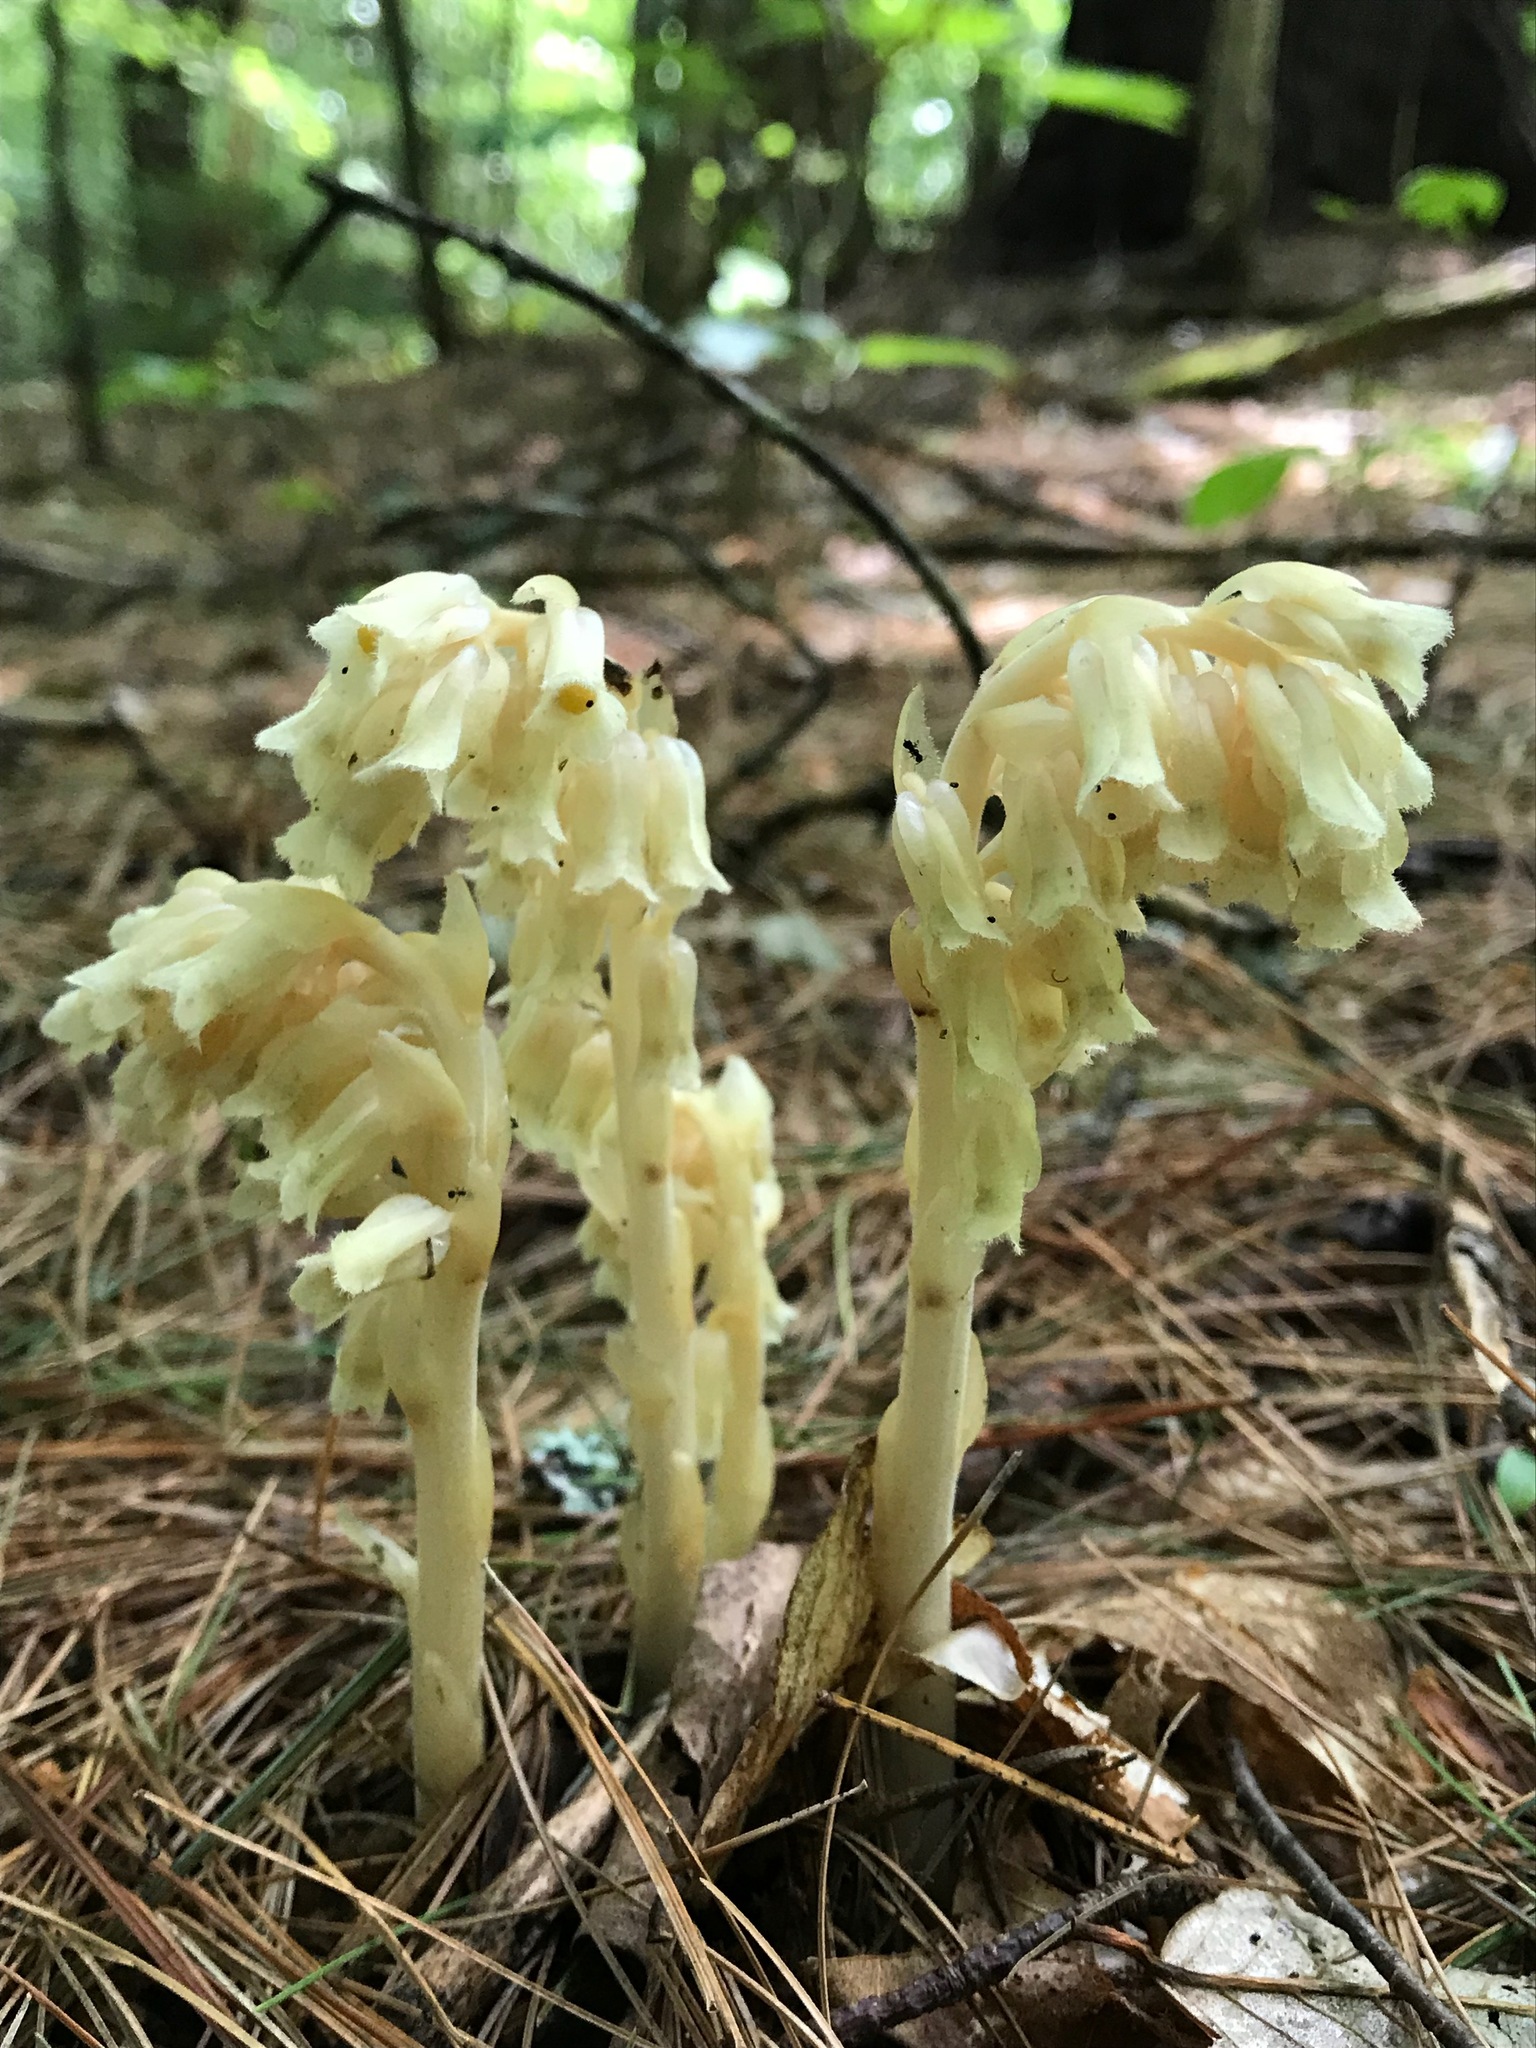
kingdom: Plantae
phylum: Tracheophyta
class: Magnoliopsida
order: Ericales
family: Ericaceae
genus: Hypopitys
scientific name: Hypopitys monotropa
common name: Yellow bird's-nest
